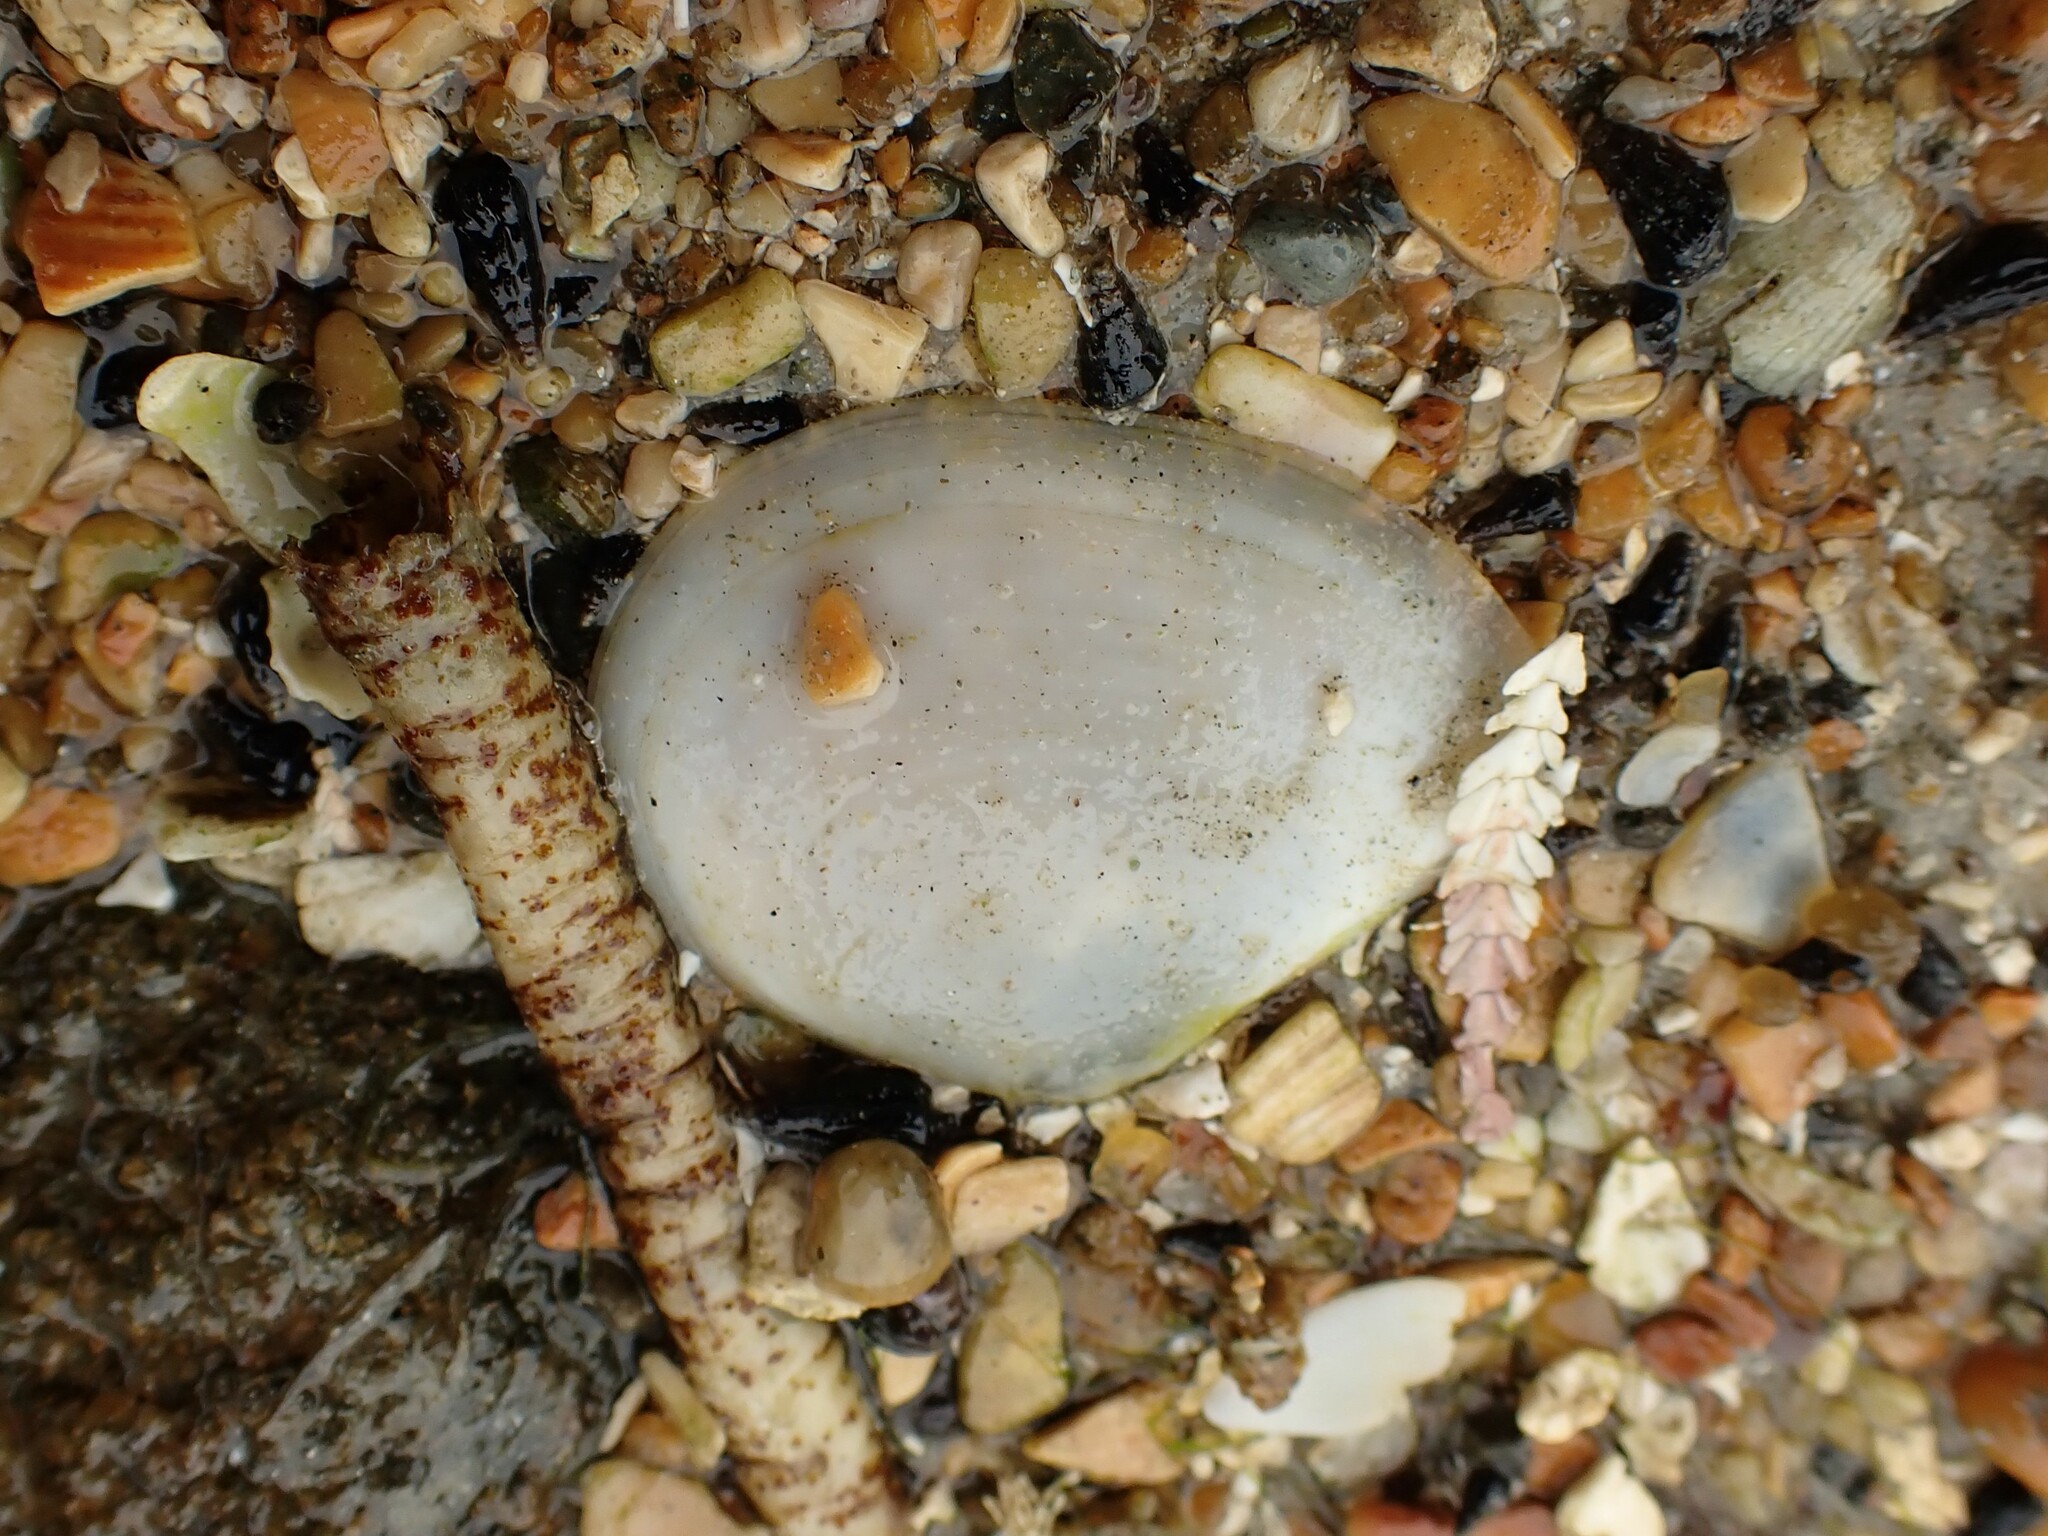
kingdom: Animalia
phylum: Mollusca
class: Bivalvia
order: Cardiida
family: Tellinidae
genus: Macomona
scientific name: Macomona liliana
